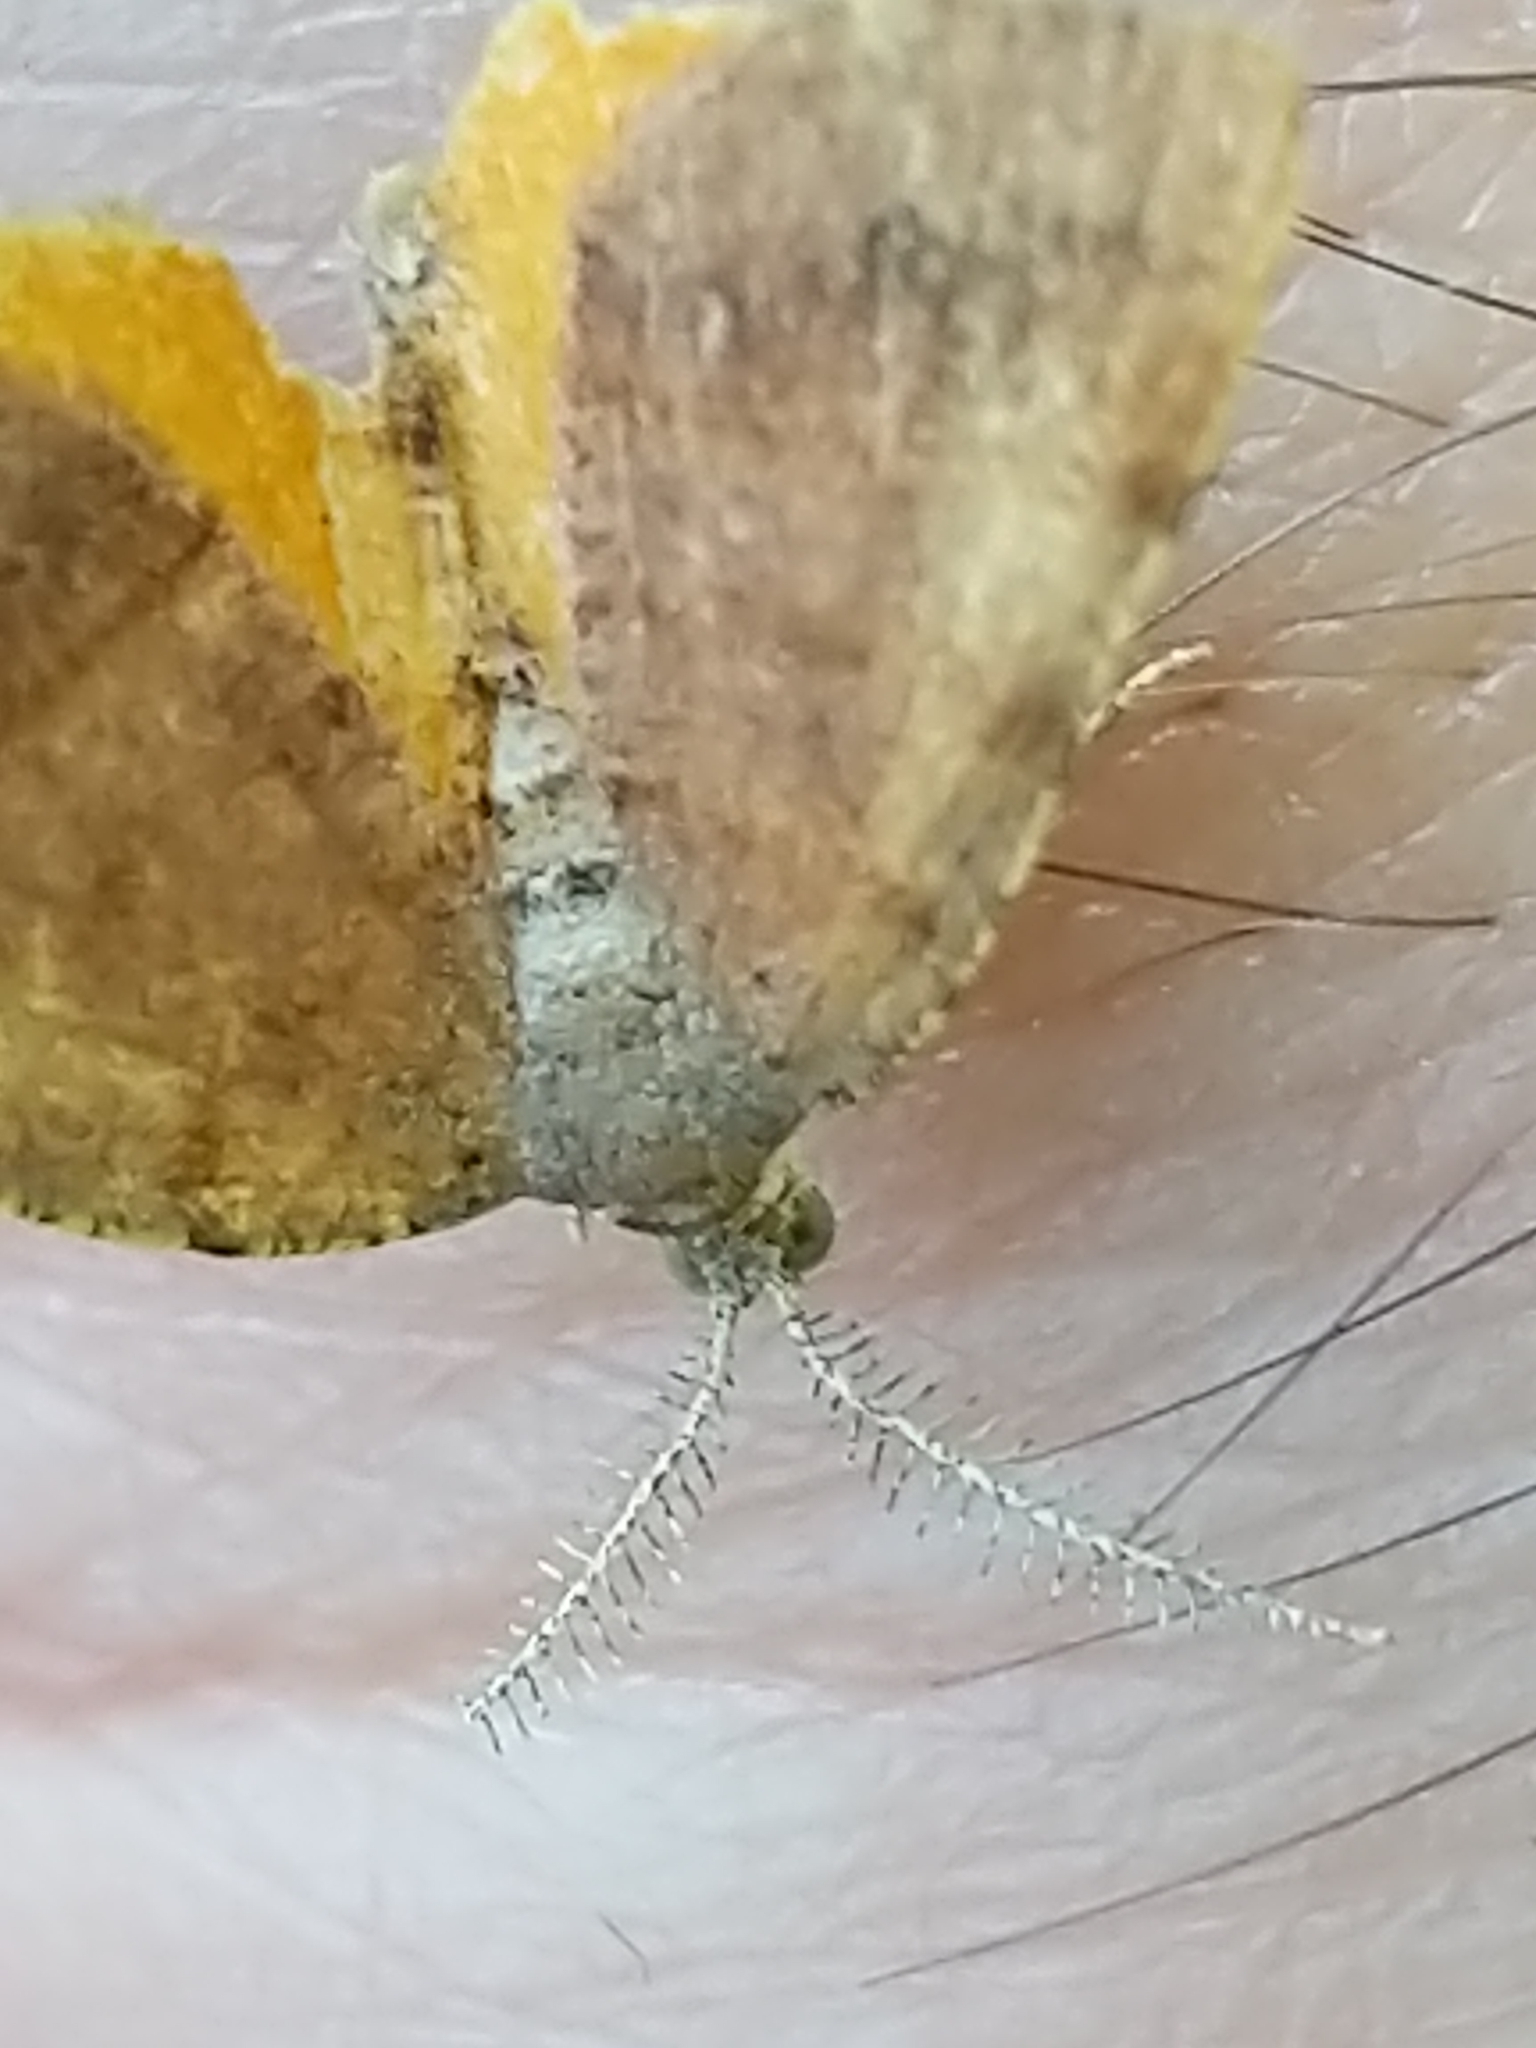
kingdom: Animalia
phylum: Arthropoda
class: Insecta
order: Lepidoptera
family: Geometridae
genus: Mellilla
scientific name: Mellilla xanthometata
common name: Orange wing moth
